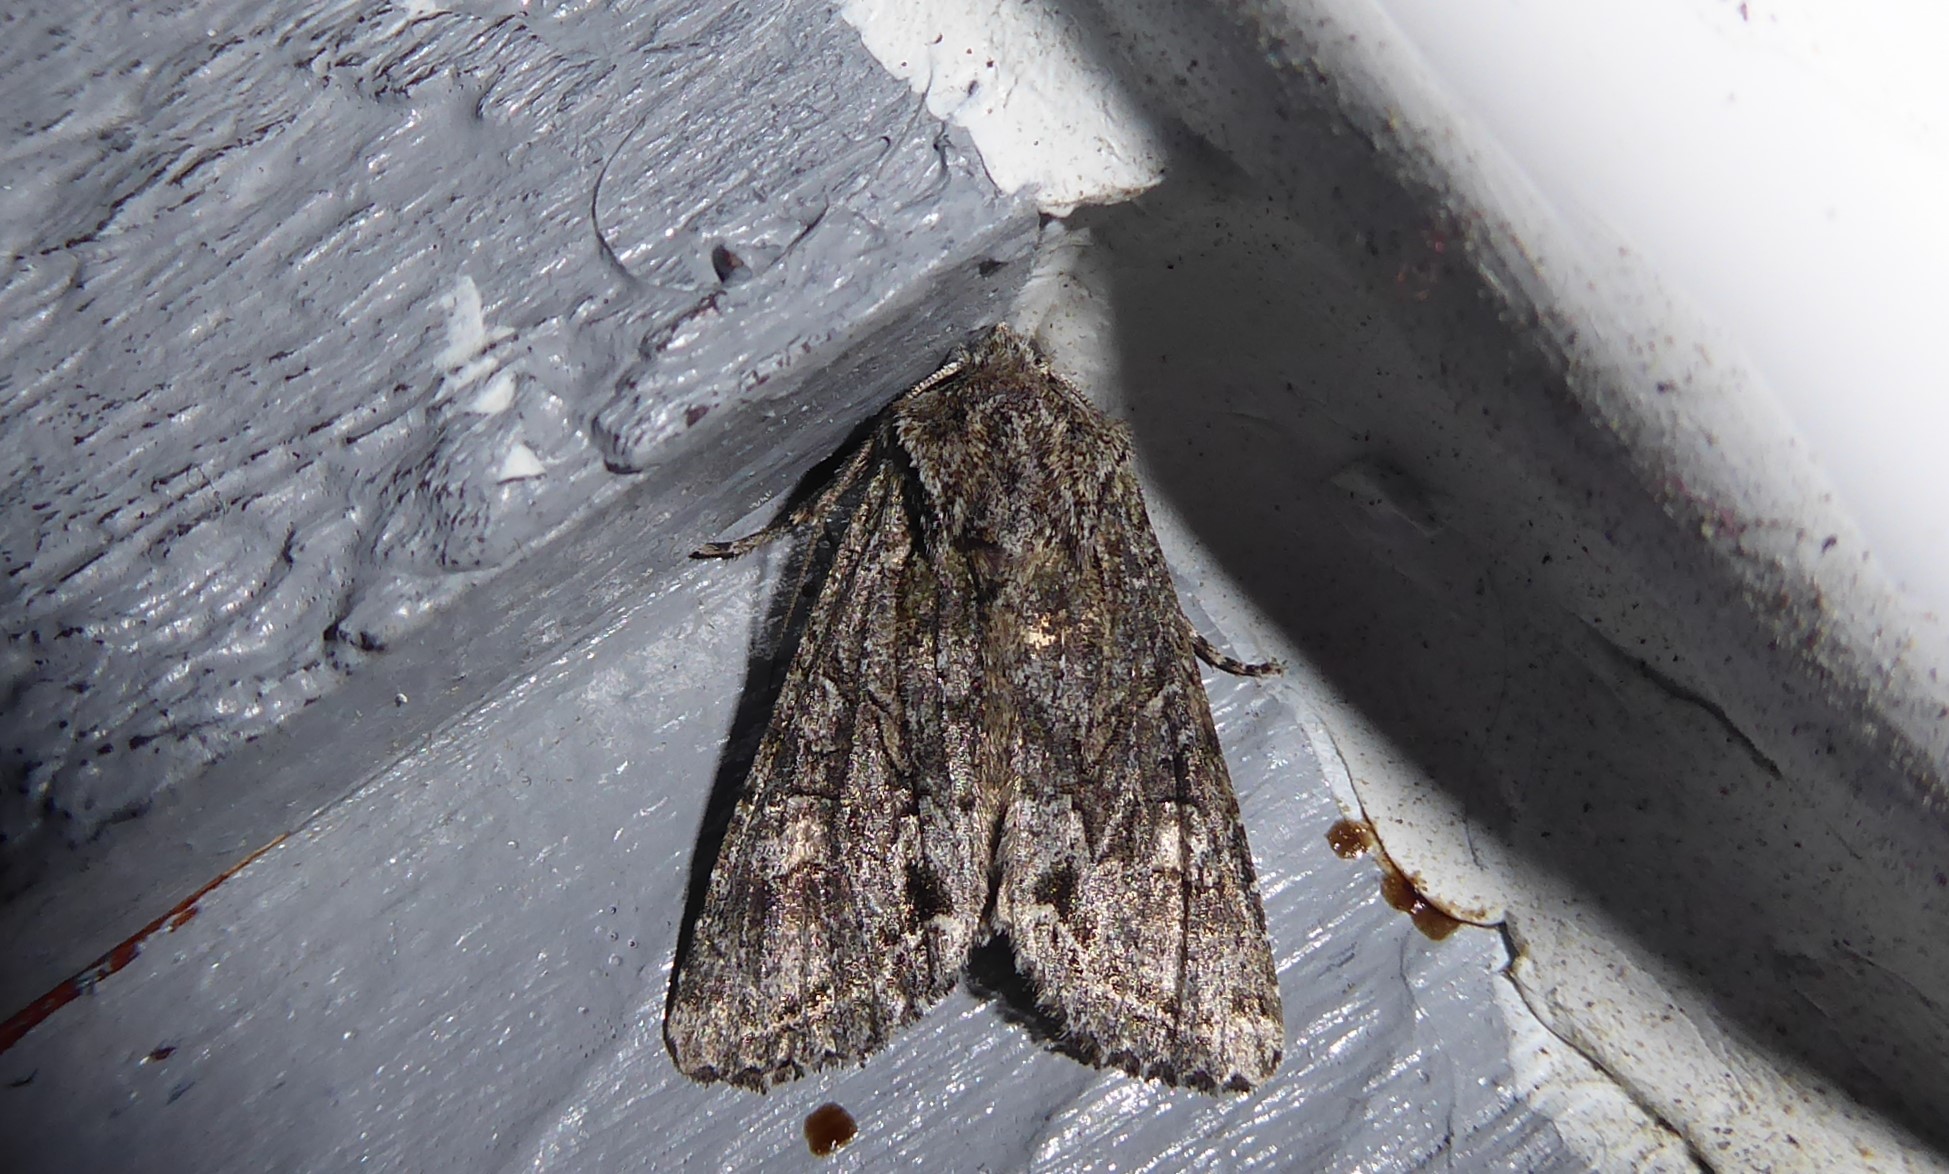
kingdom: Animalia
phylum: Arthropoda
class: Insecta
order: Lepidoptera
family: Noctuidae
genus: Ichneutica
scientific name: Ichneutica mutans
